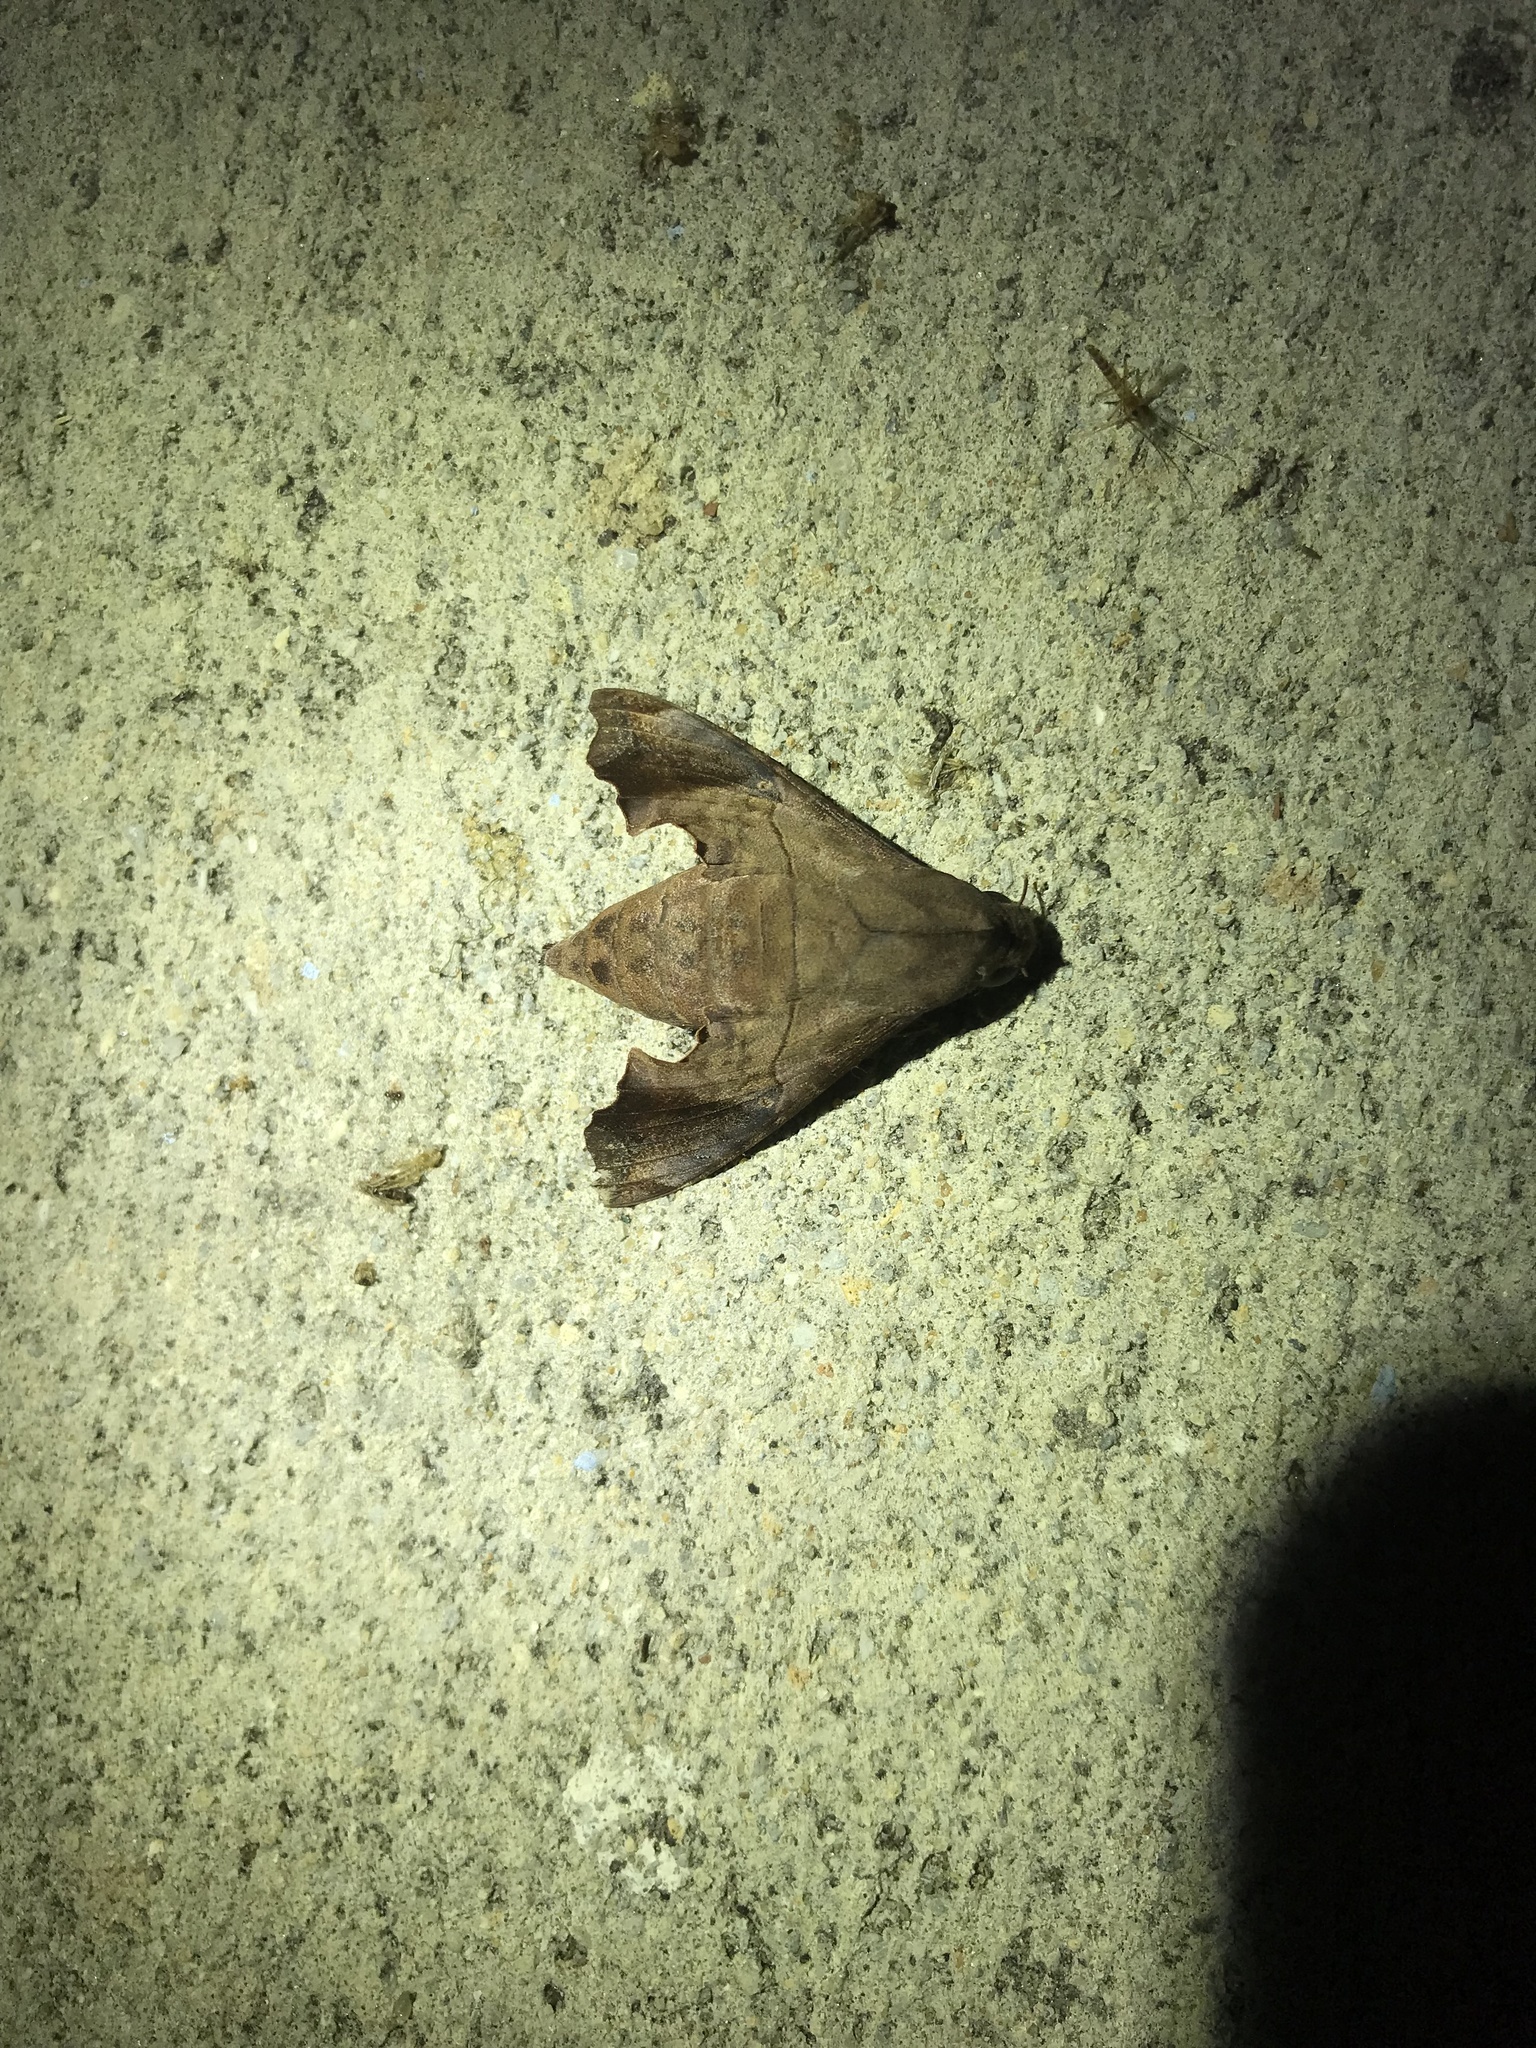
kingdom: Animalia
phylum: Arthropoda
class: Insecta
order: Lepidoptera
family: Sphingidae
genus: Enyo
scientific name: Enyo lugubris
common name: Mournful sphinx
